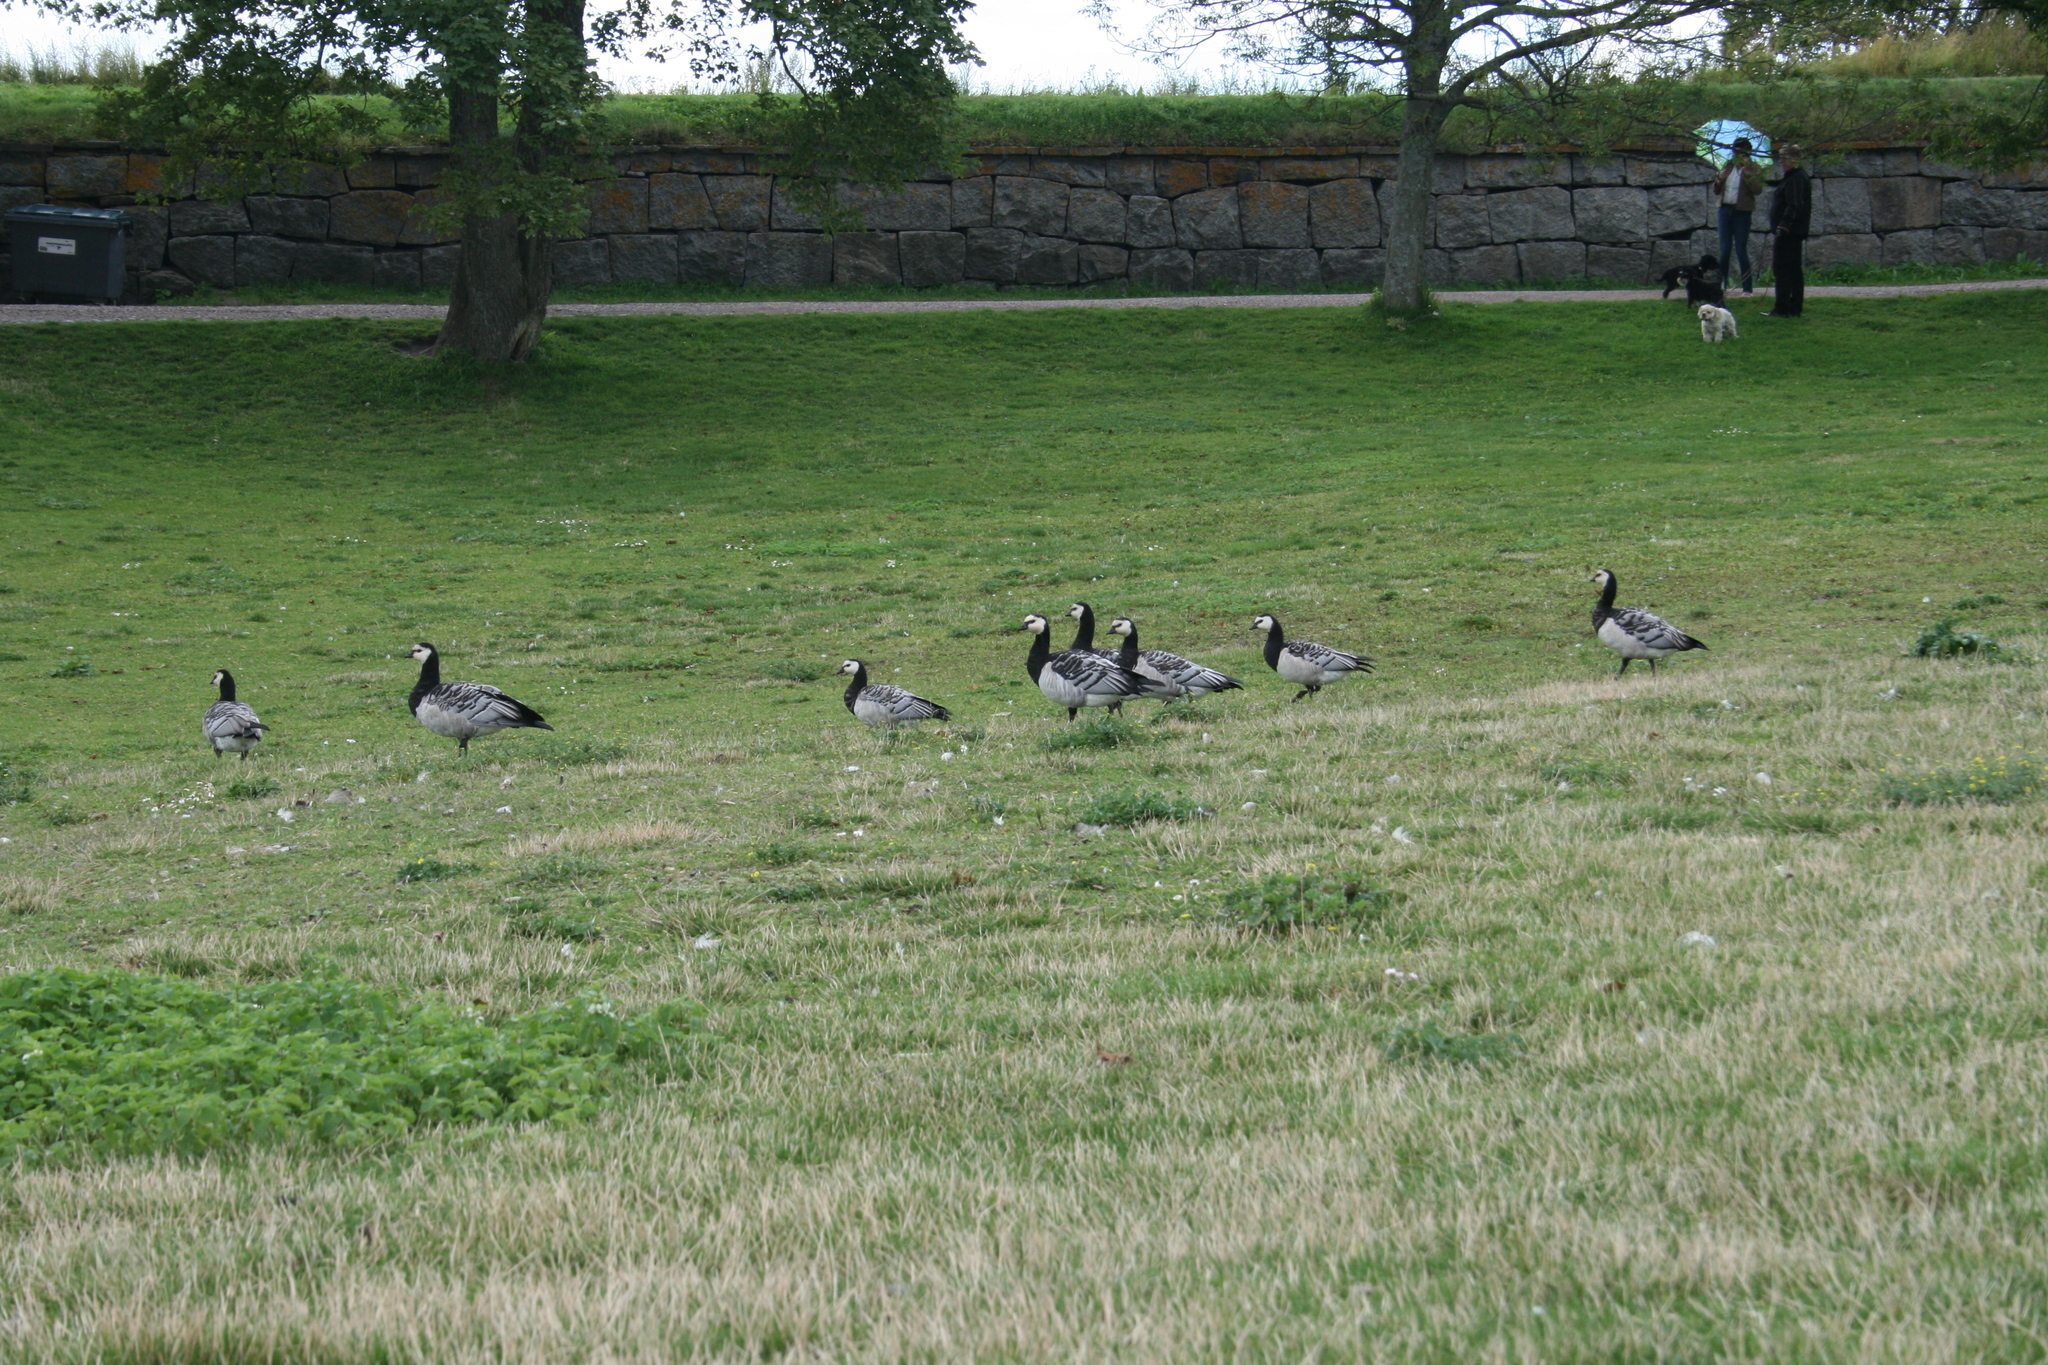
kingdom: Animalia
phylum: Chordata
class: Aves
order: Anseriformes
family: Anatidae
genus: Branta
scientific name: Branta leucopsis
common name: Barnacle goose
